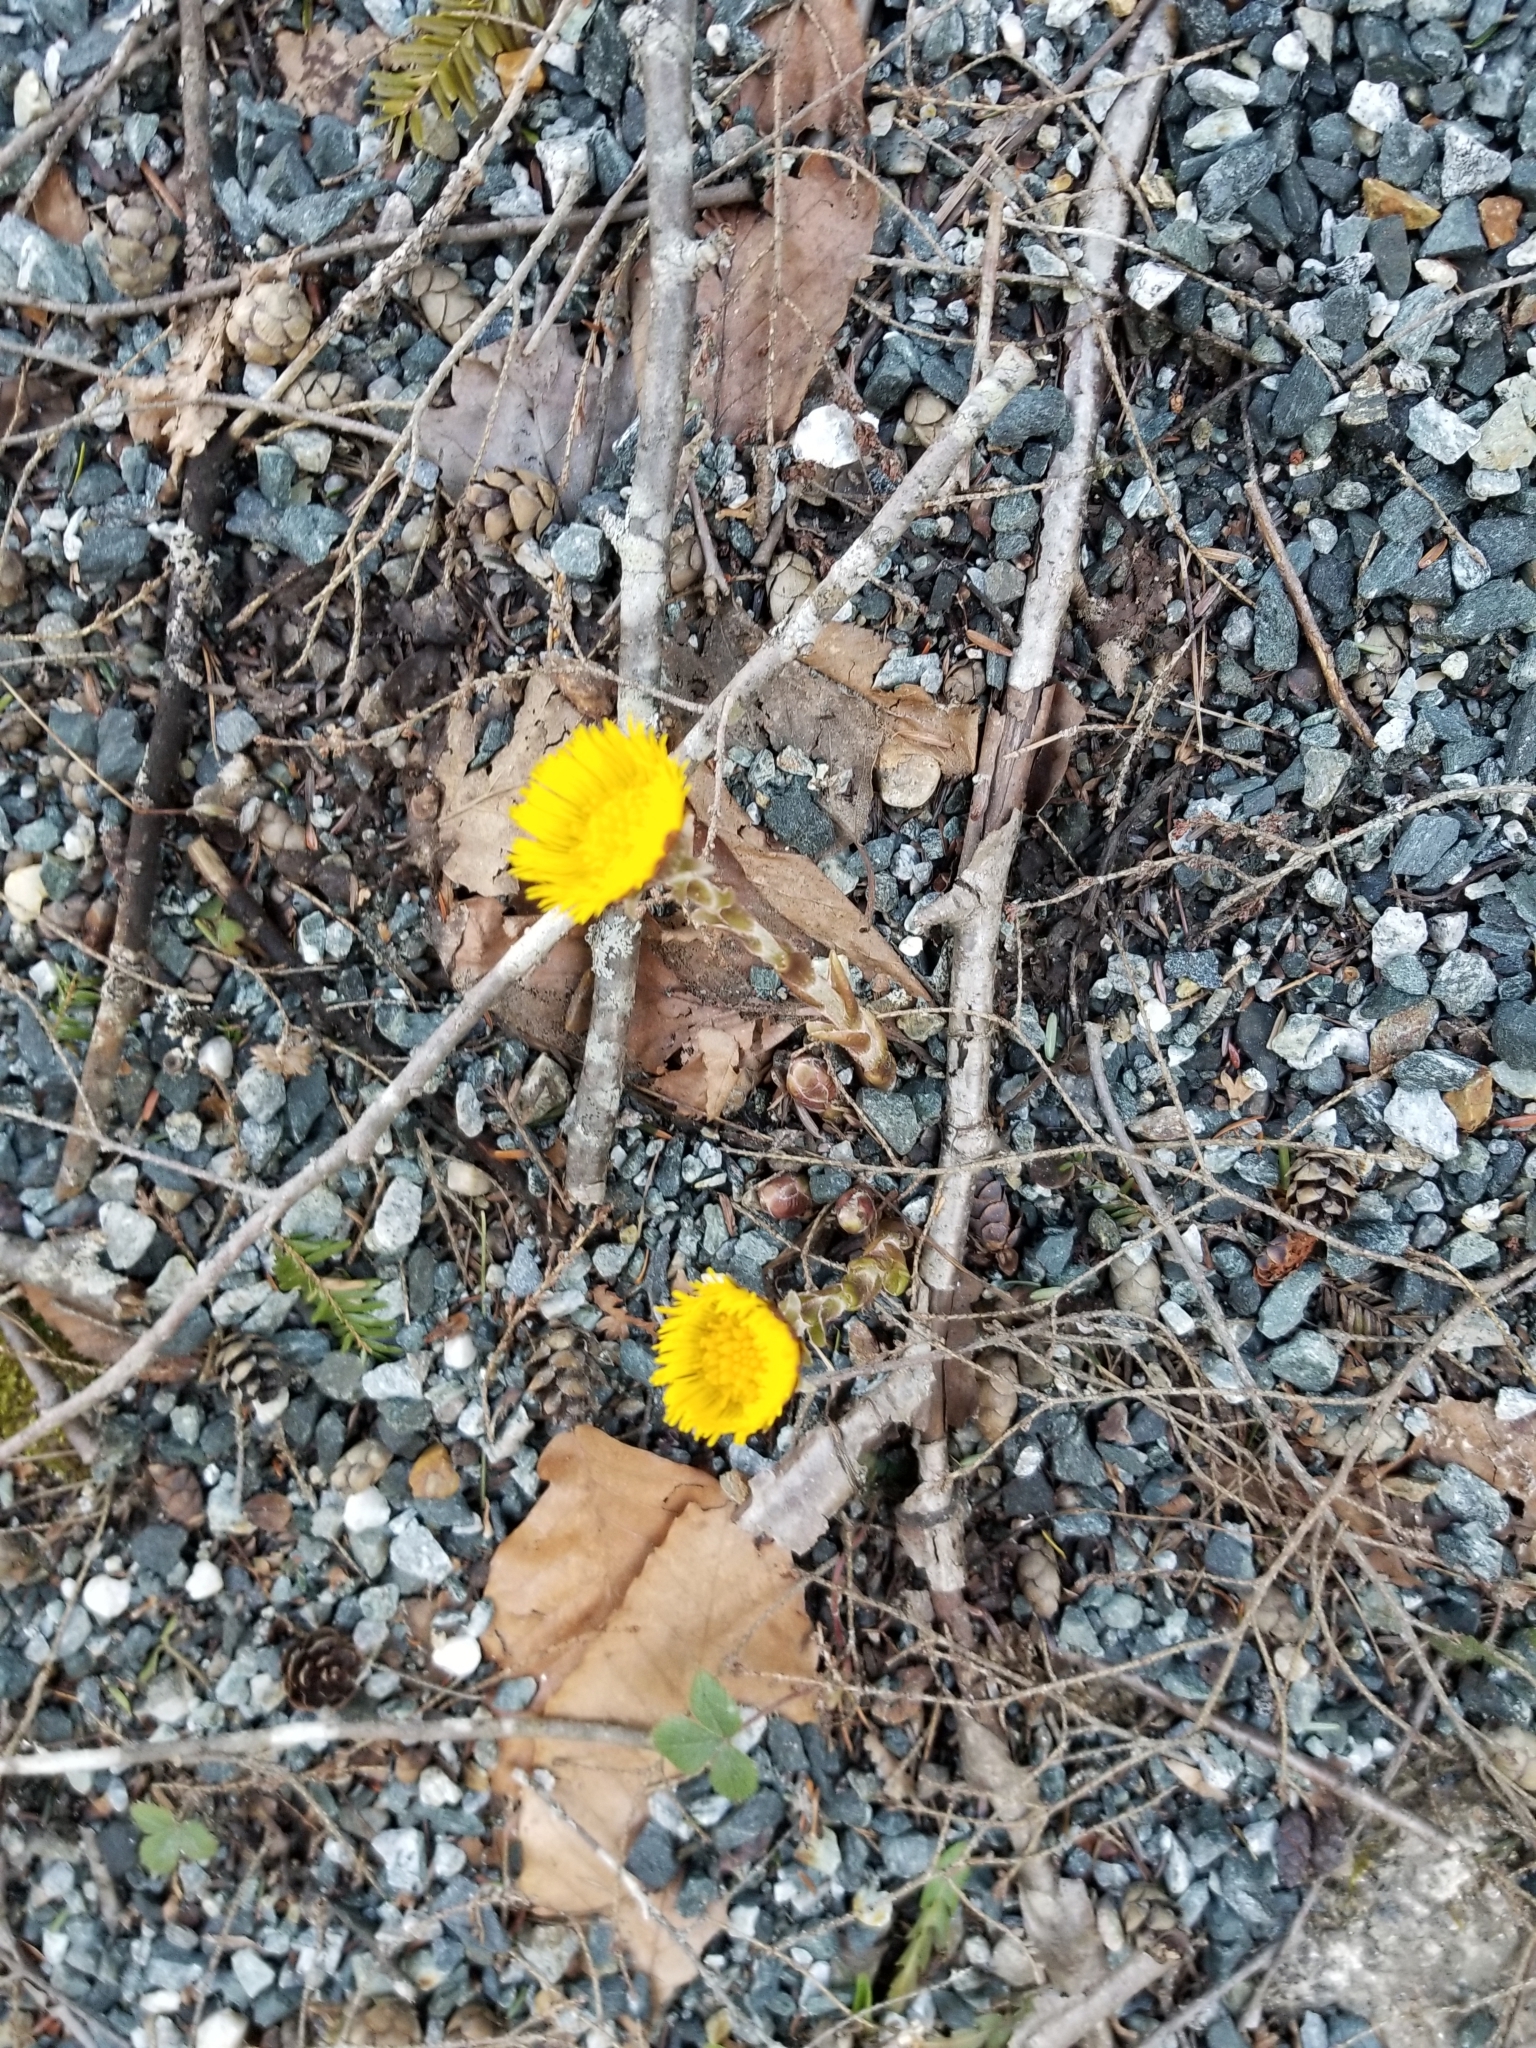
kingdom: Plantae
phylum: Tracheophyta
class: Magnoliopsida
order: Asterales
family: Asteraceae
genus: Tussilago
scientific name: Tussilago farfara
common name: Coltsfoot
